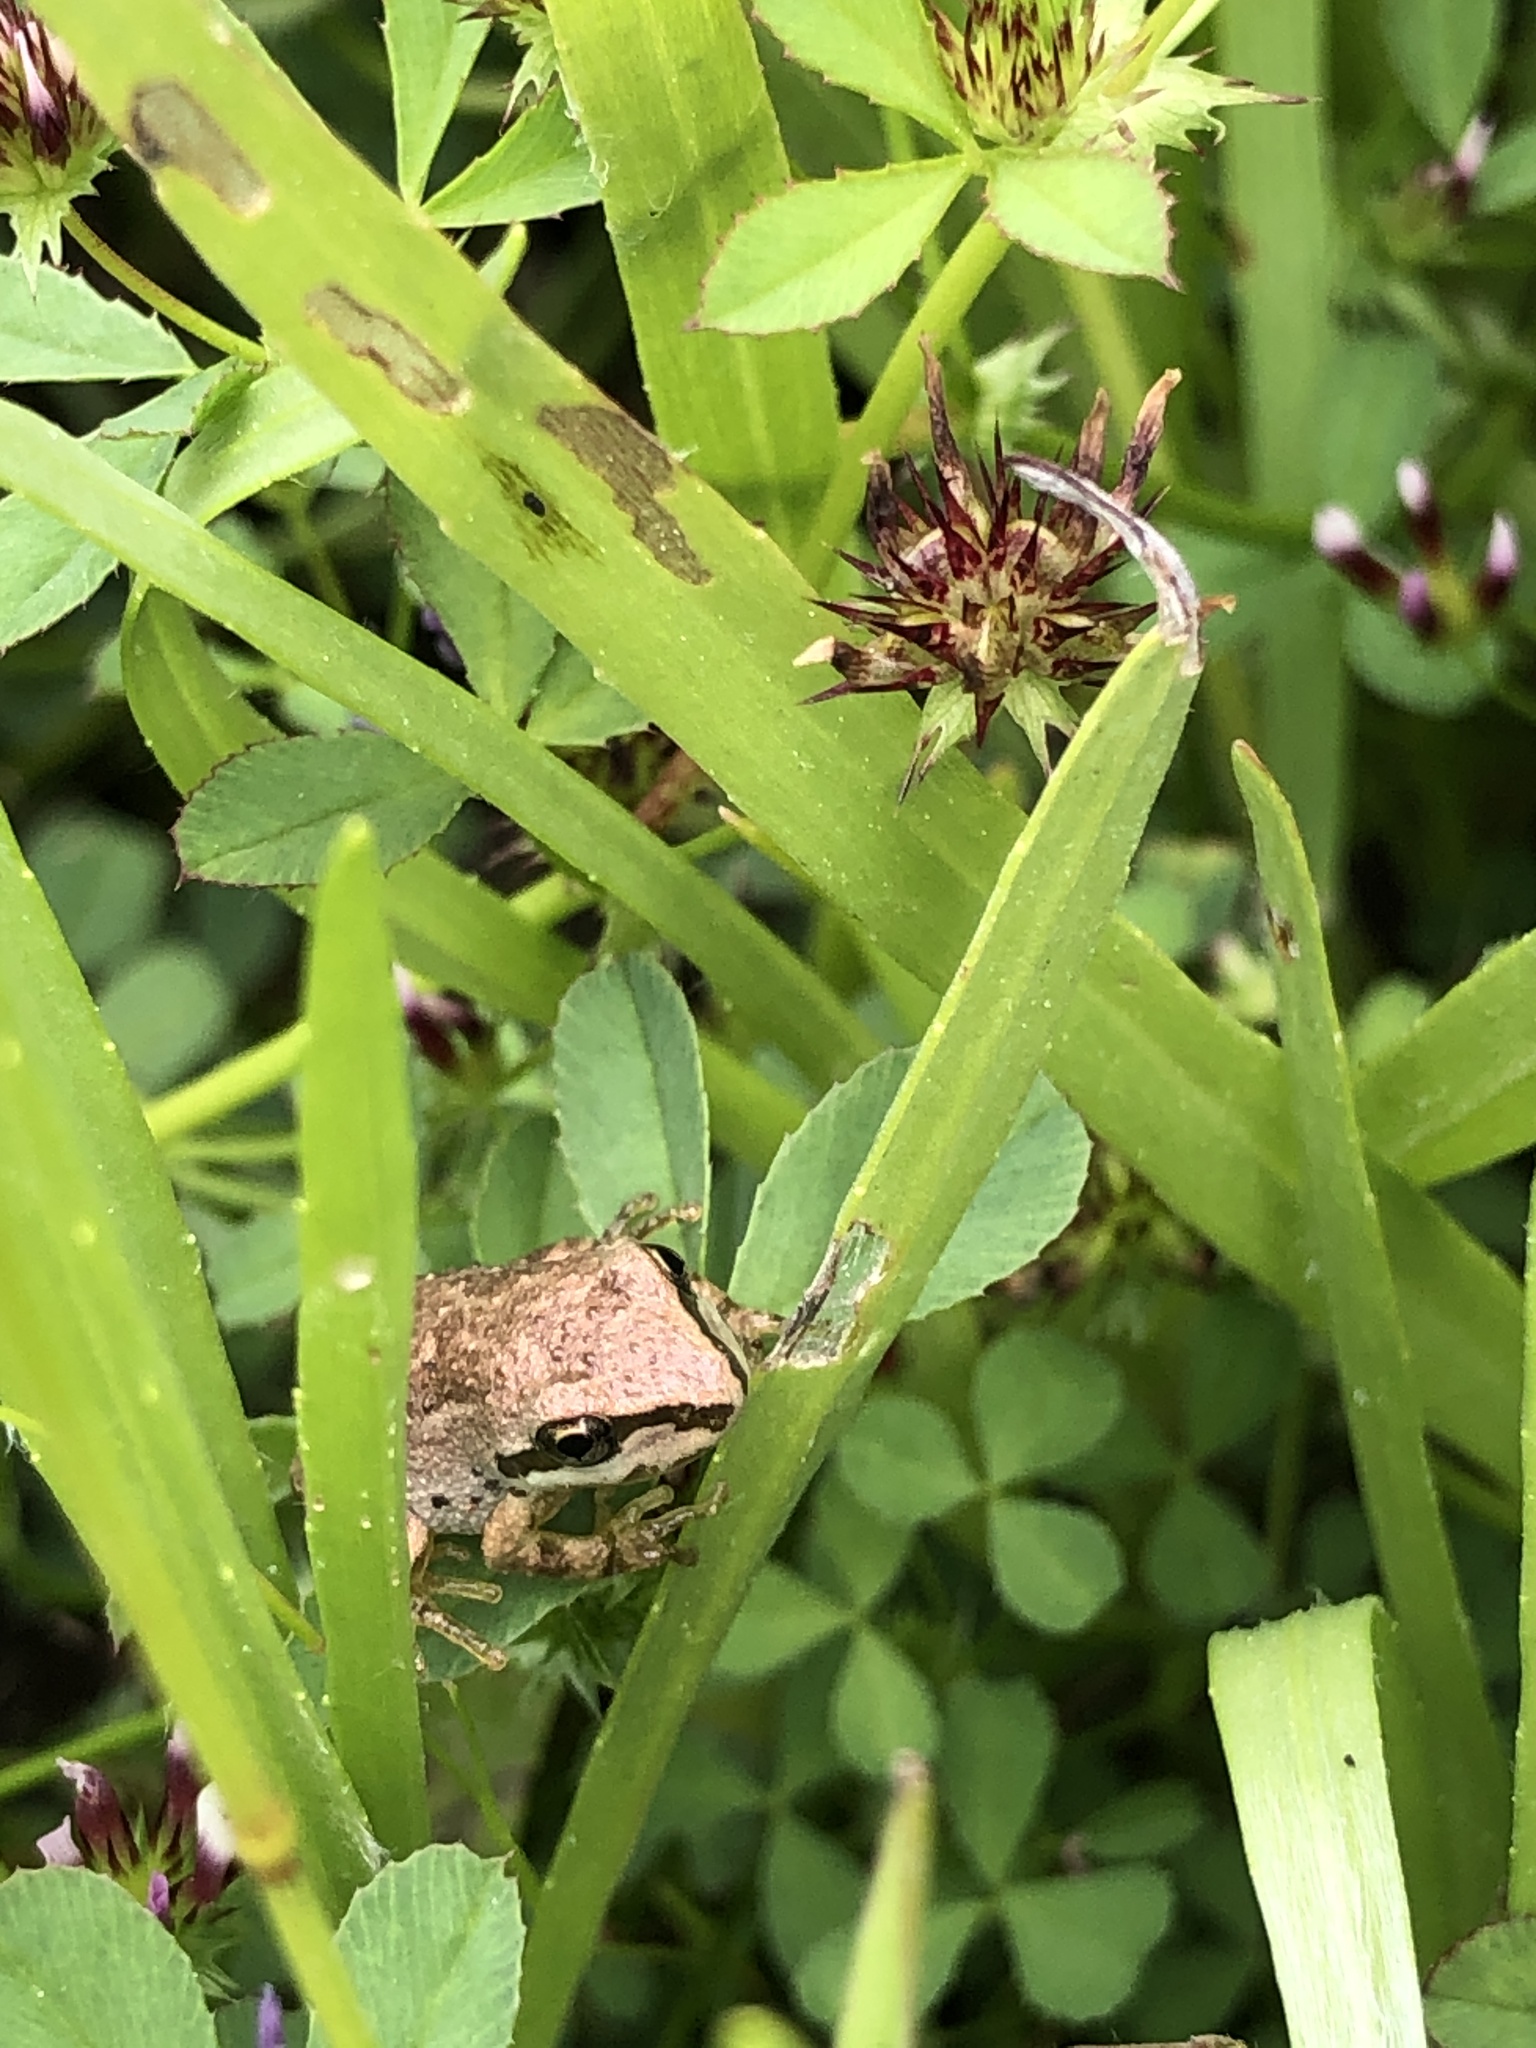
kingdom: Animalia
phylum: Chordata
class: Amphibia
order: Anura
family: Hylidae
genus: Pseudacris
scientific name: Pseudacris regilla
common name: Pacific chorus frog
